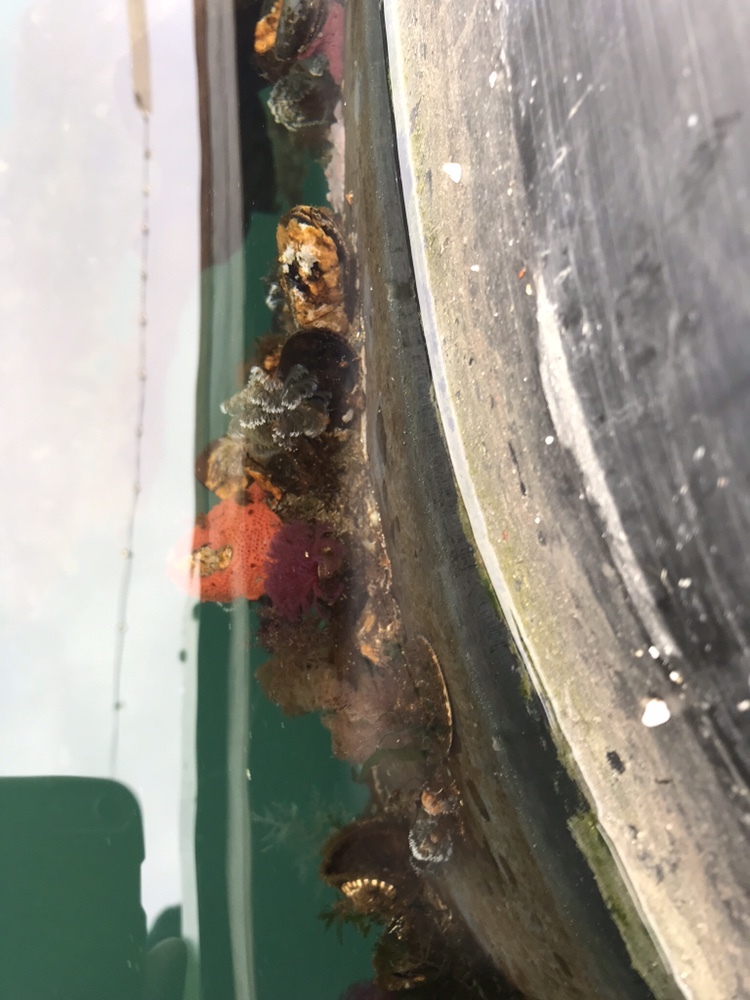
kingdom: Animalia
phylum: Annelida
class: Polychaeta
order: Sabellida
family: Sabellidae
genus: Schizobranchia
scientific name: Schizobranchia insignis
